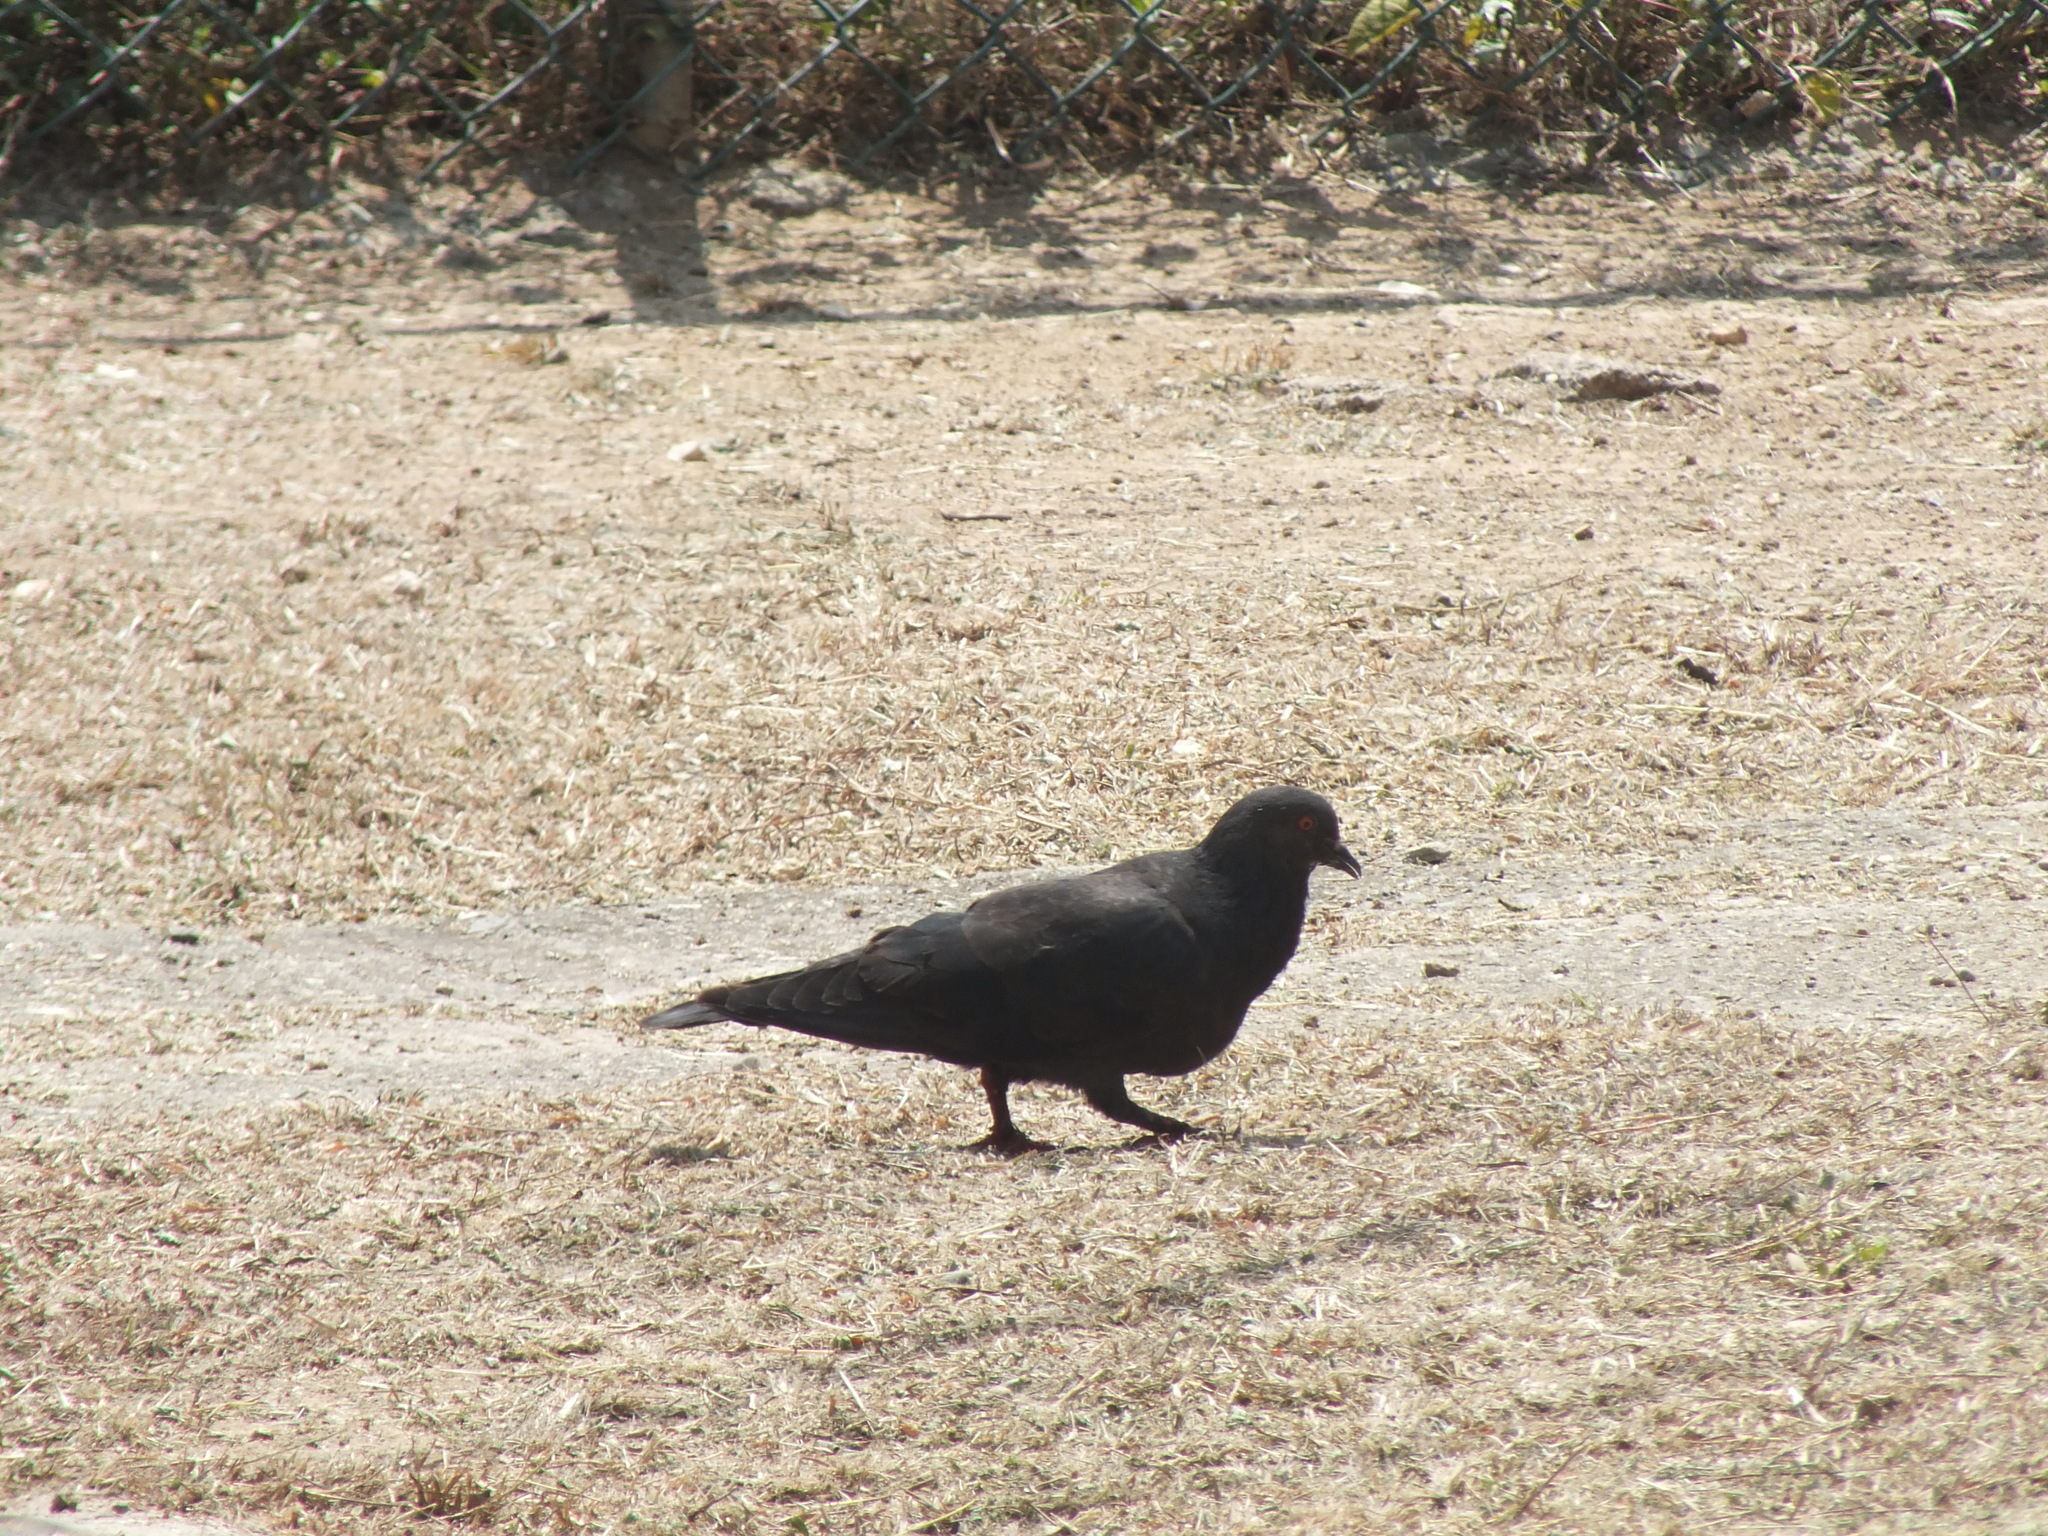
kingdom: Animalia
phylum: Chordata
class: Aves
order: Columbiformes
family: Columbidae
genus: Columba
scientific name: Columba livia
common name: Rock pigeon
